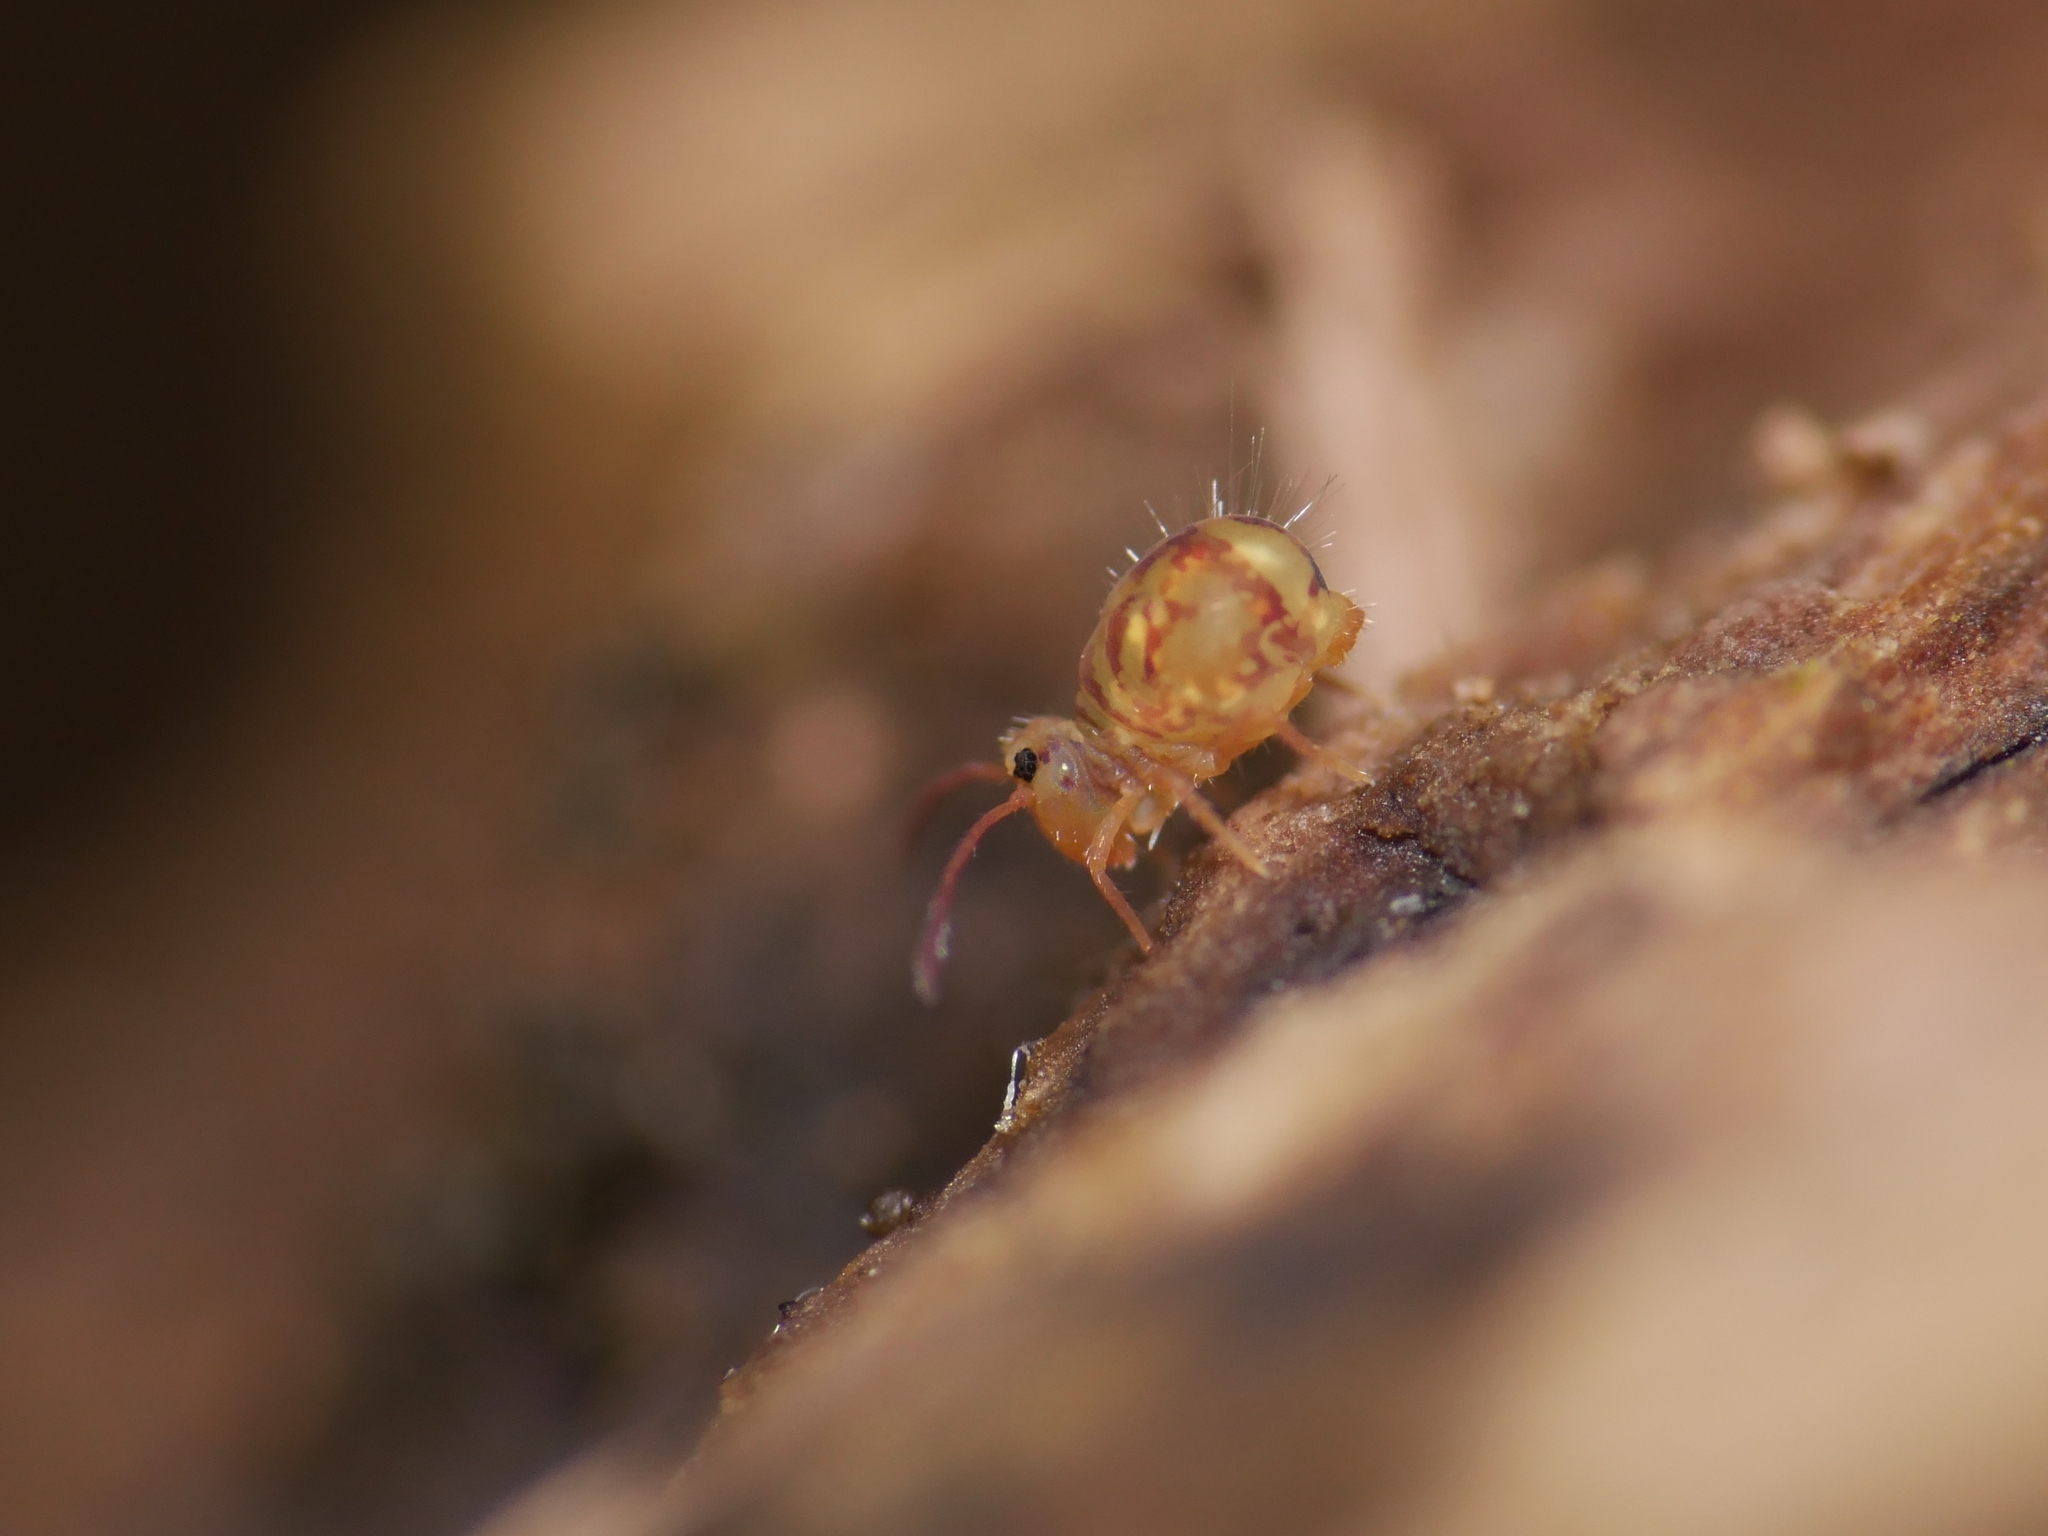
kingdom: Animalia
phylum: Arthropoda
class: Collembola
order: Symphypleona
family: Dicyrtomidae
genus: Dicyrtomina
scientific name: Dicyrtomina ornata
